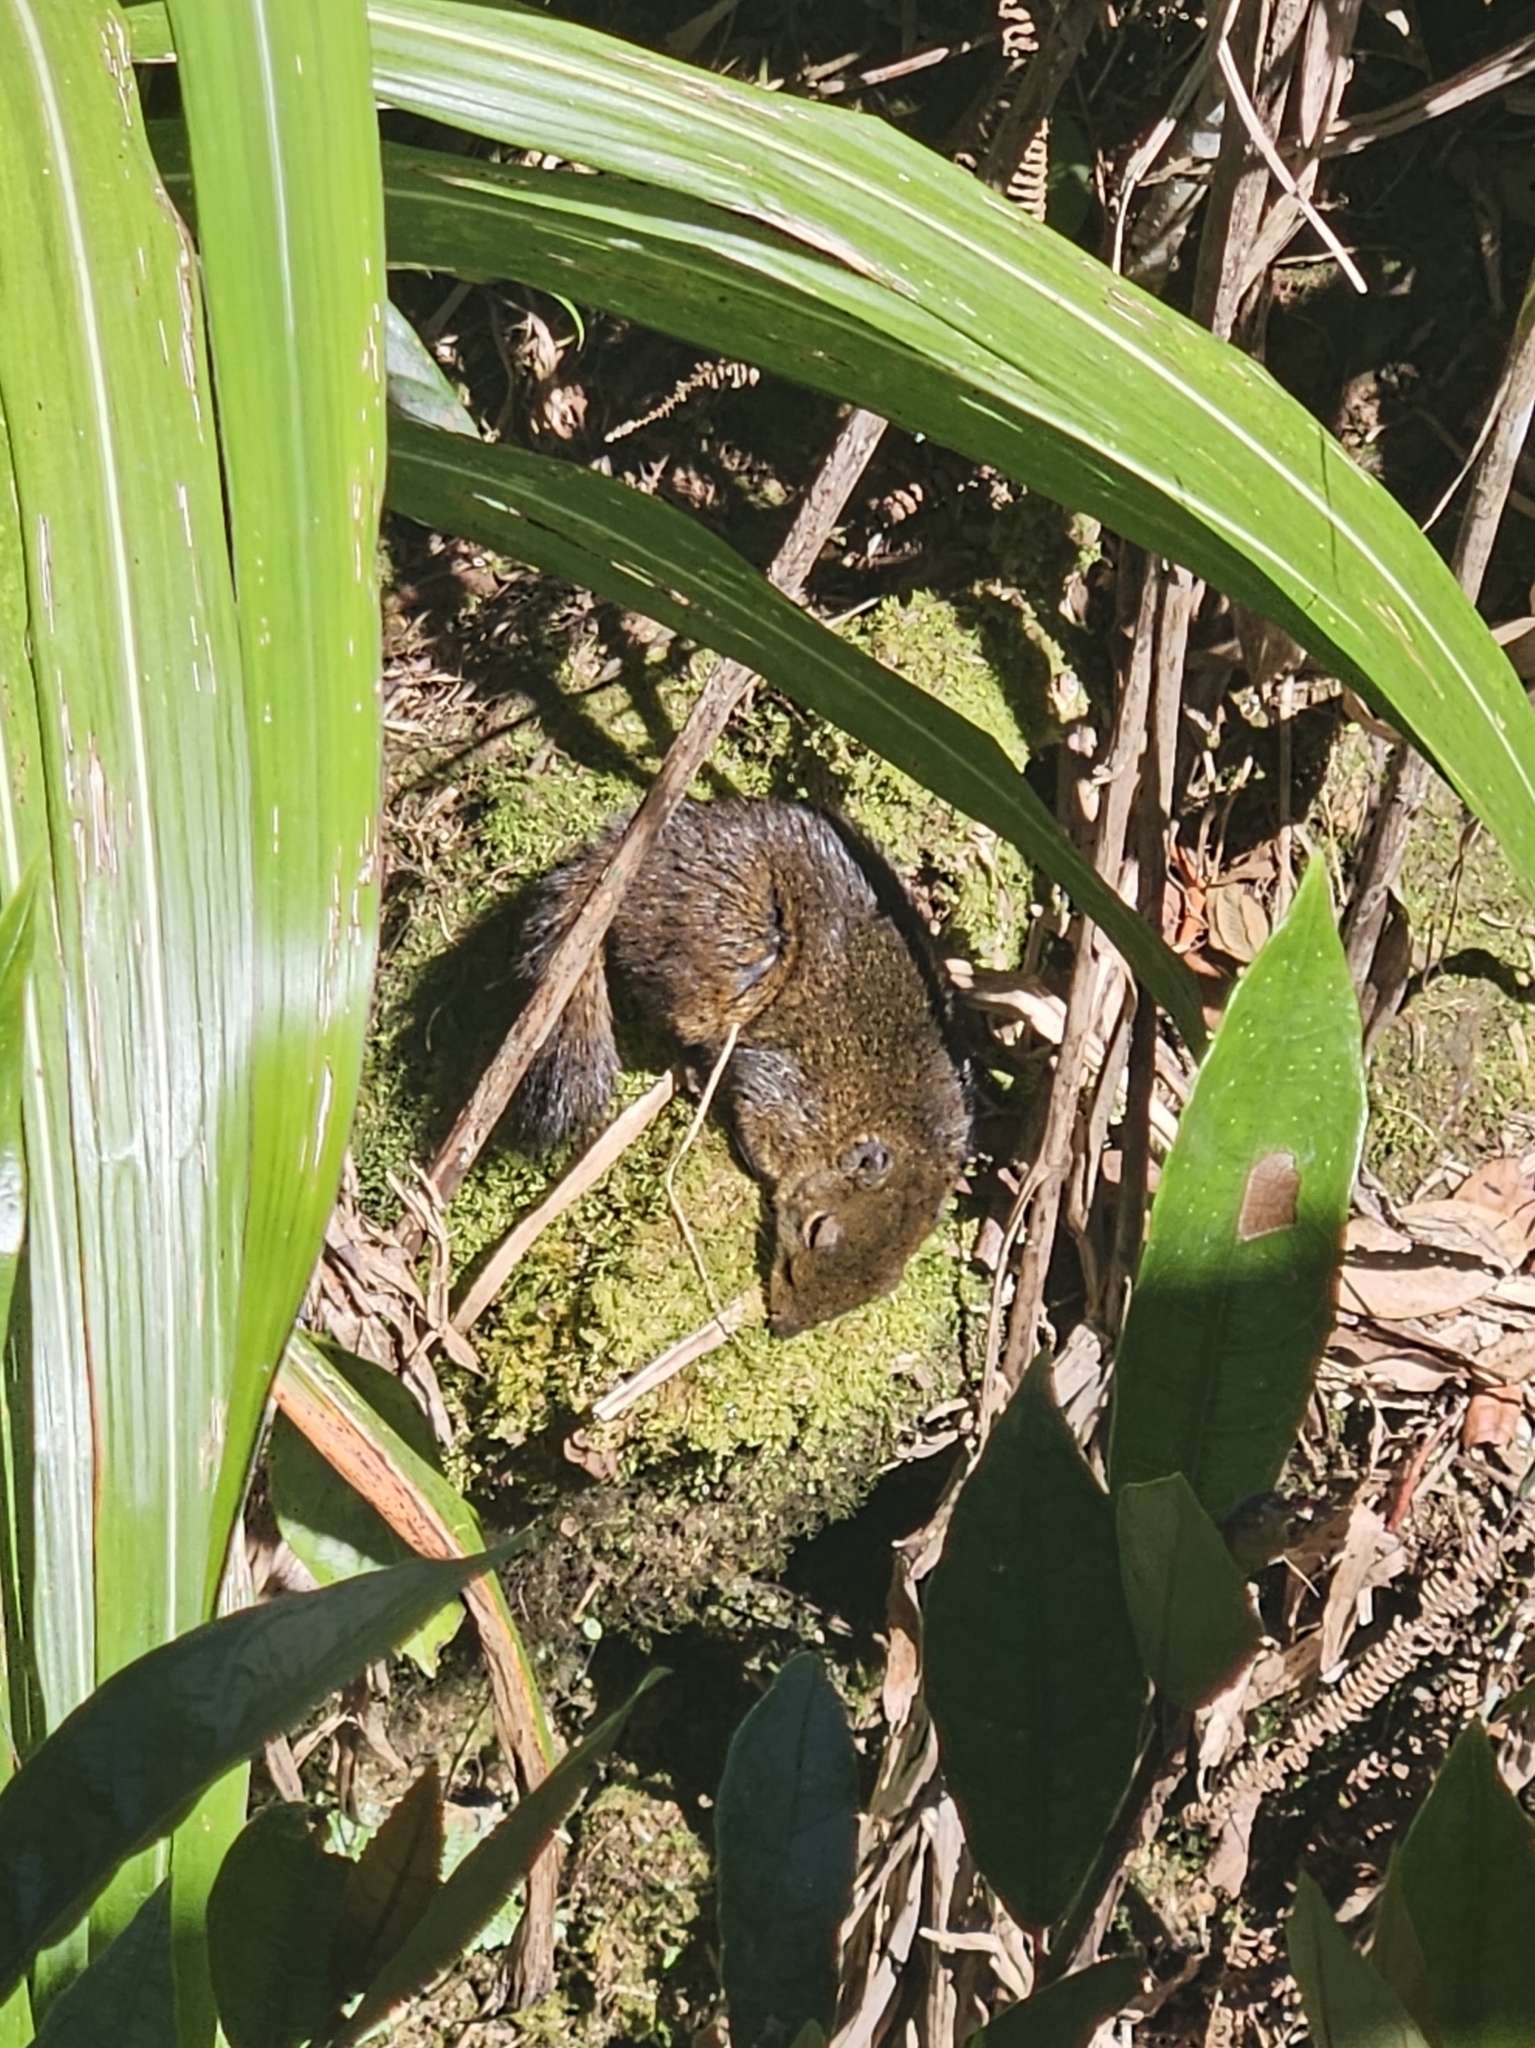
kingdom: Animalia
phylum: Chordata
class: Mammalia
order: Rodentia
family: Sciuridae
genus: Sundasciurus
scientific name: Sundasciurus everetti
